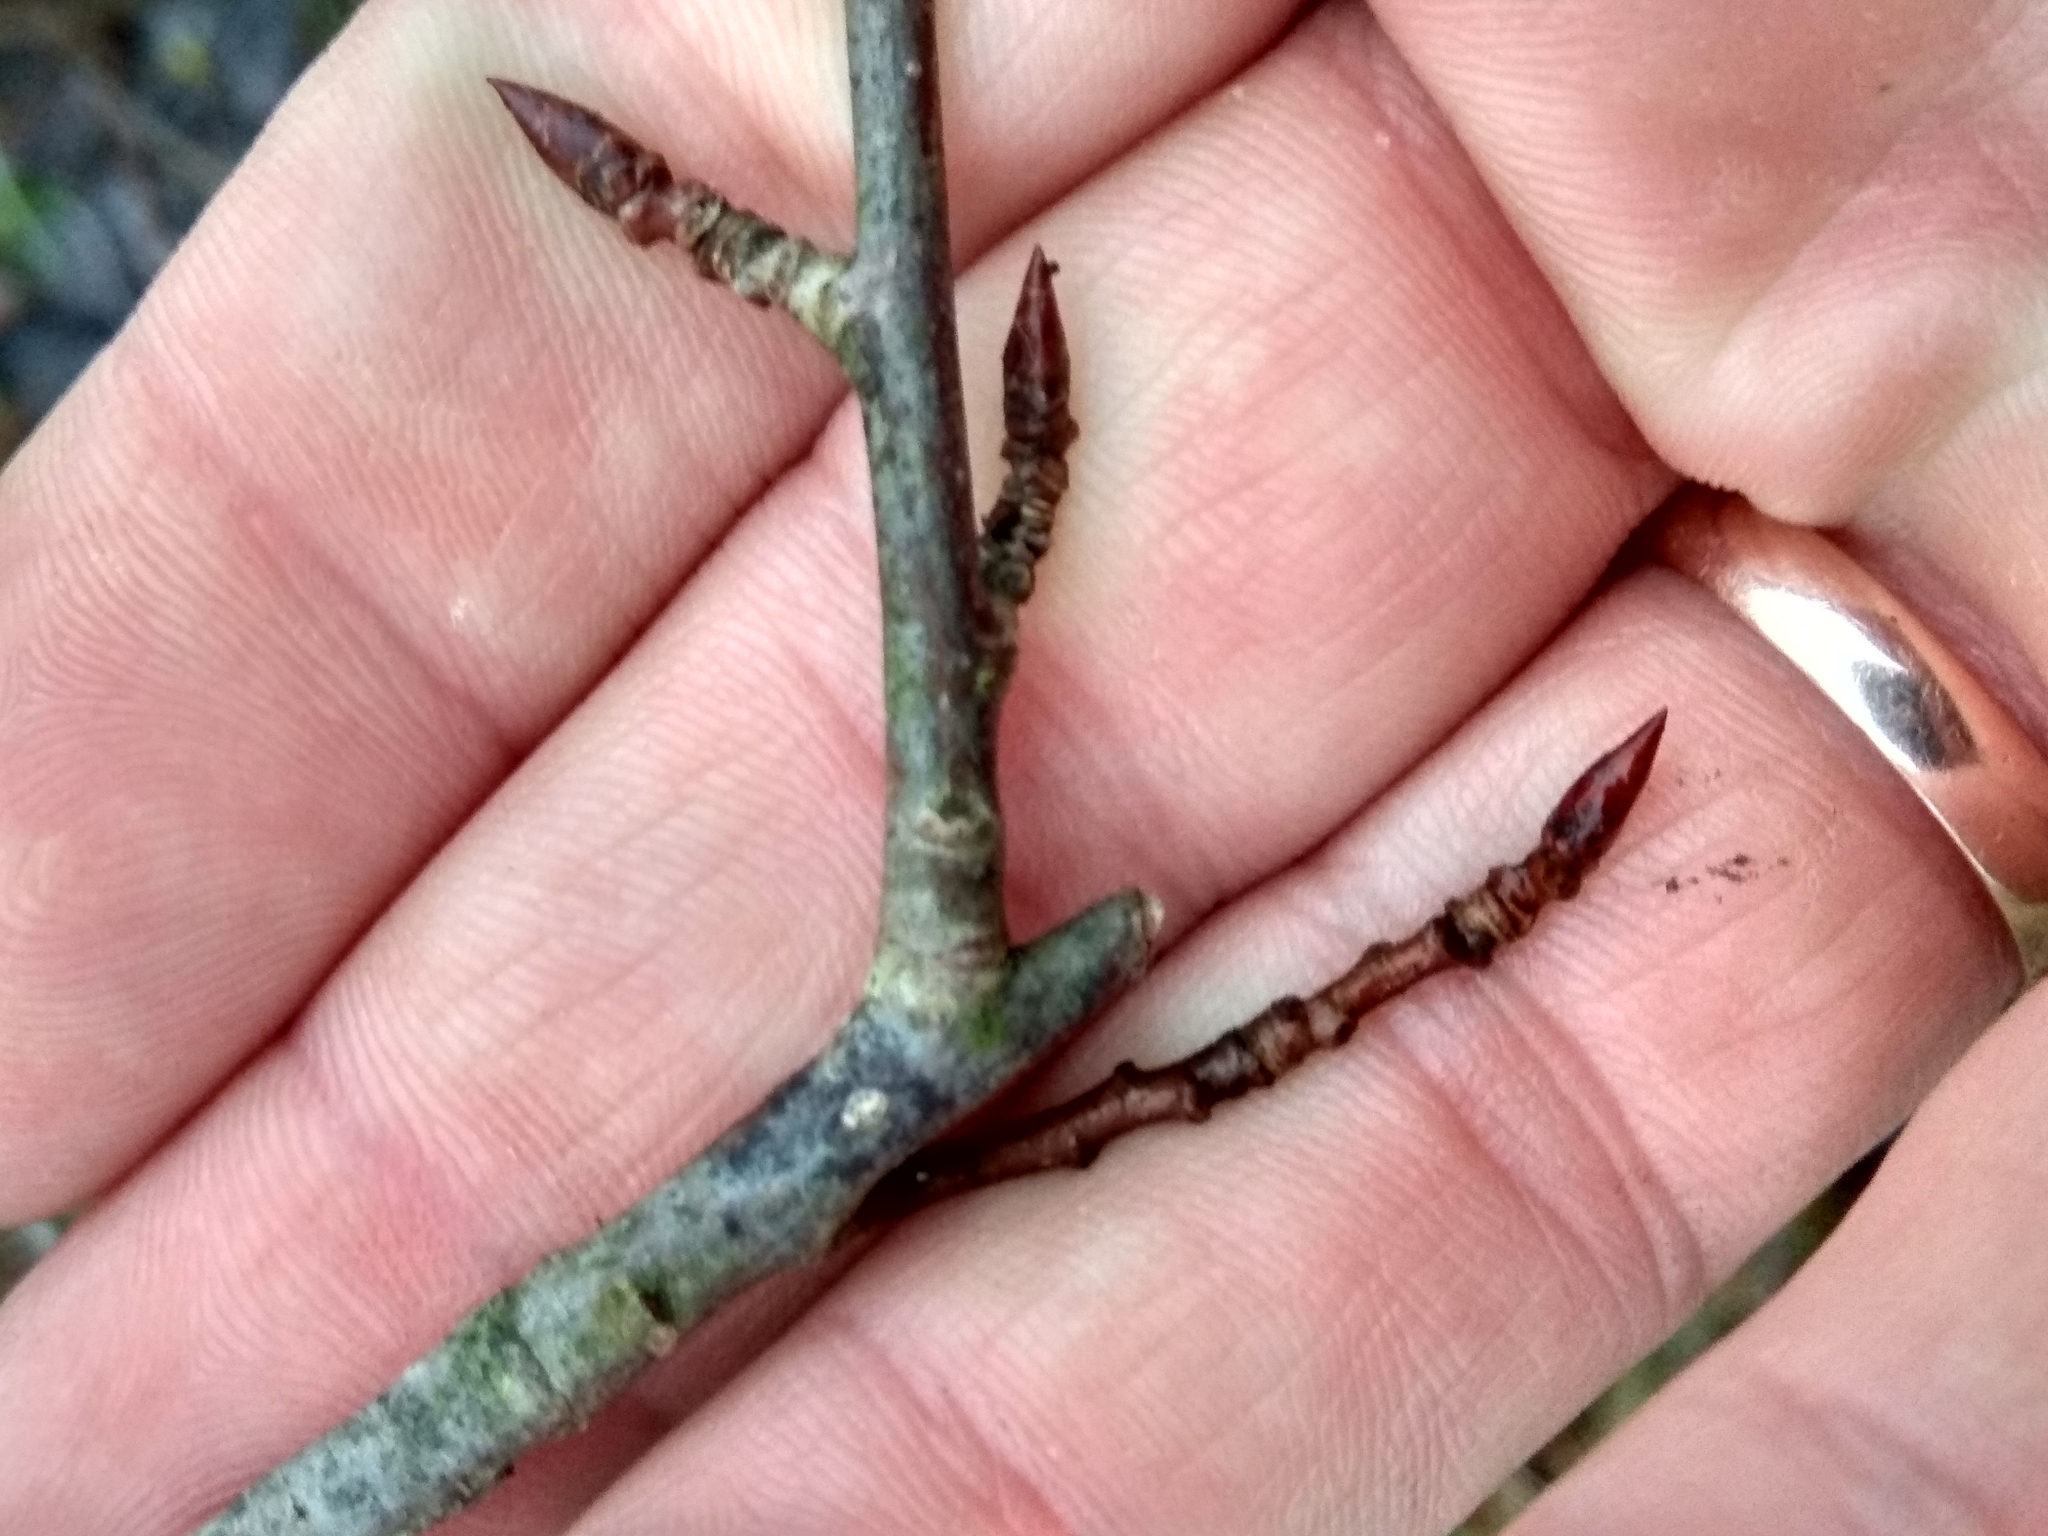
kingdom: Plantae
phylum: Tracheophyta
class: Magnoliopsida
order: Malpighiales
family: Salicaceae
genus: Populus
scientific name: Populus tremula
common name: European aspen
